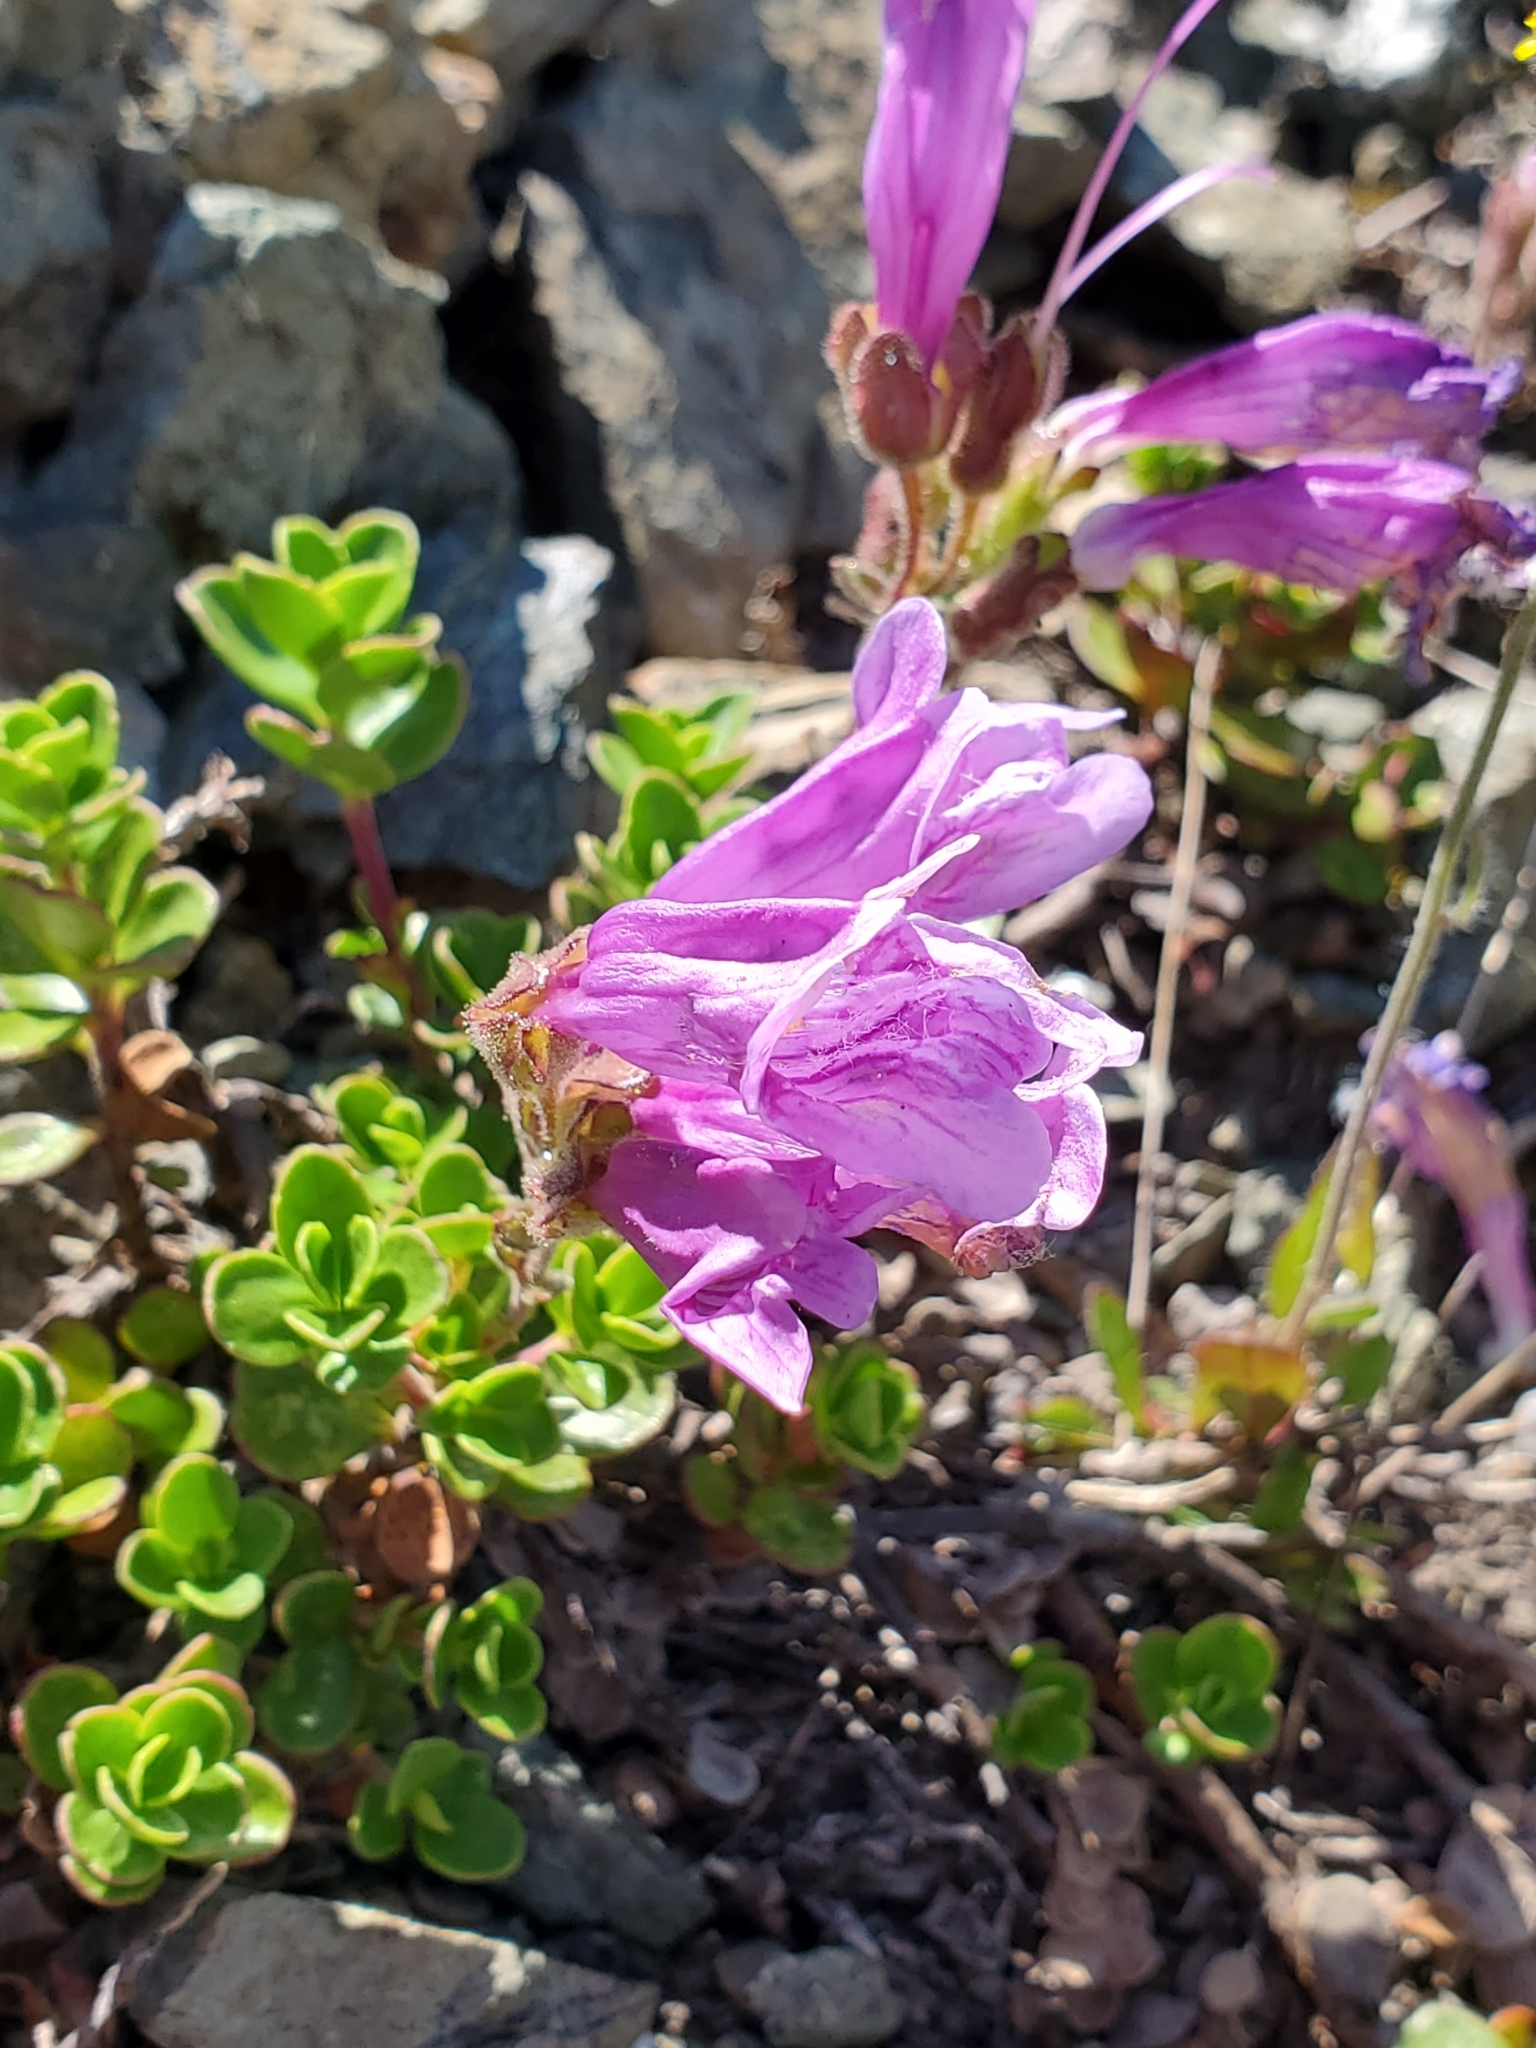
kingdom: Plantae
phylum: Tracheophyta
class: Magnoliopsida
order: Lamiales
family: Plantaginaceae
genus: Penstemon
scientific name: Penstemon davidsonii
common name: Davidson's penstemon
